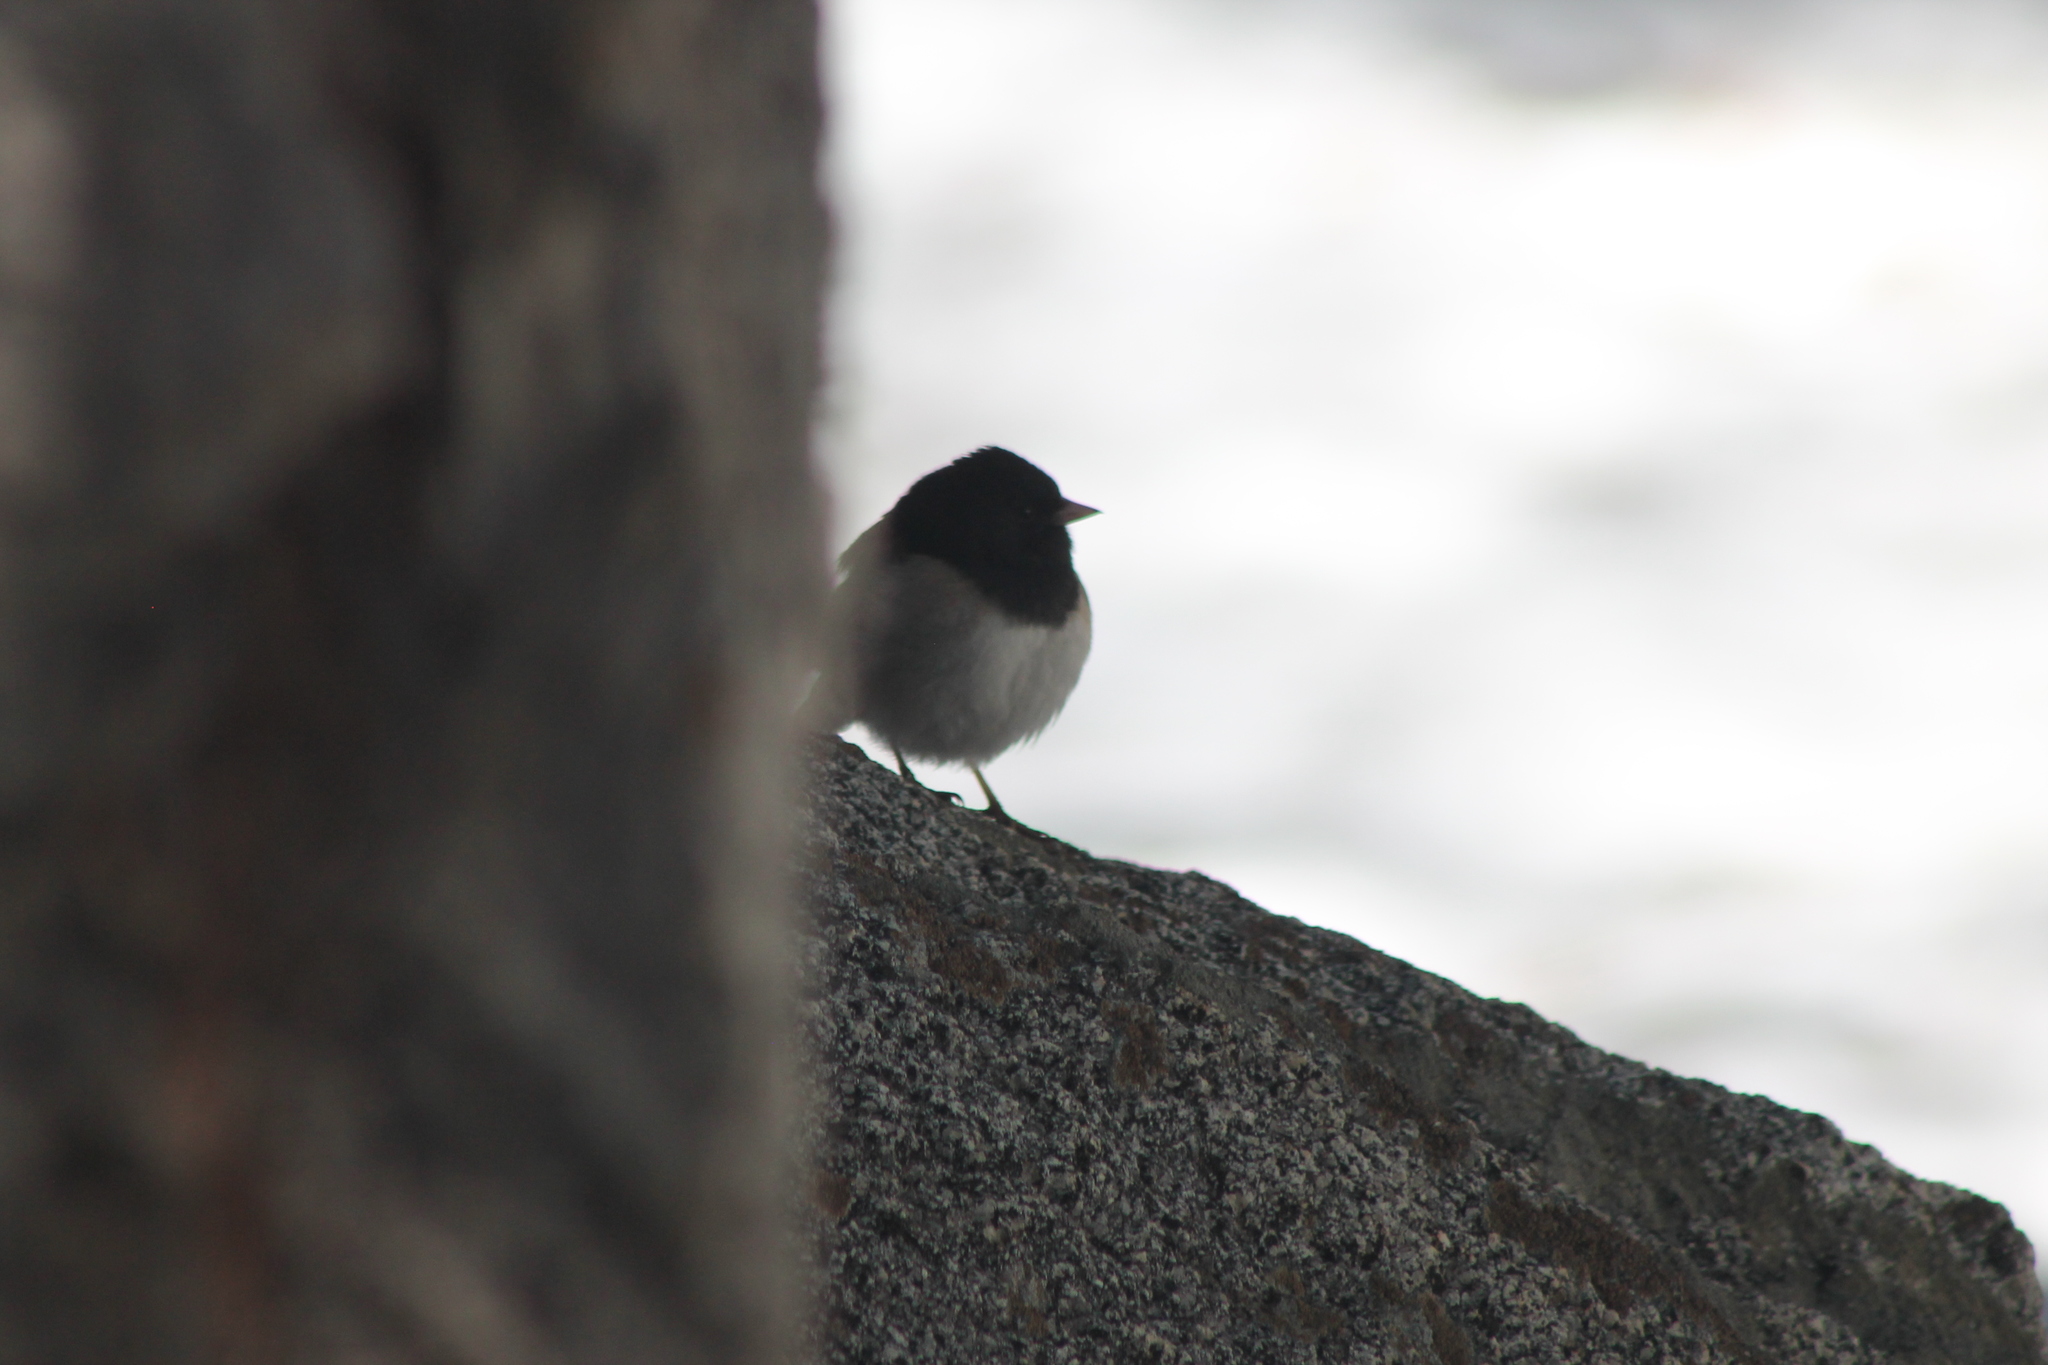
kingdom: Animalia
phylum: Chordata
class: Aves
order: Passeriformes
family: Passerellidae
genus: Junco
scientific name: Junco hyemalis
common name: Dark-eyed junco
